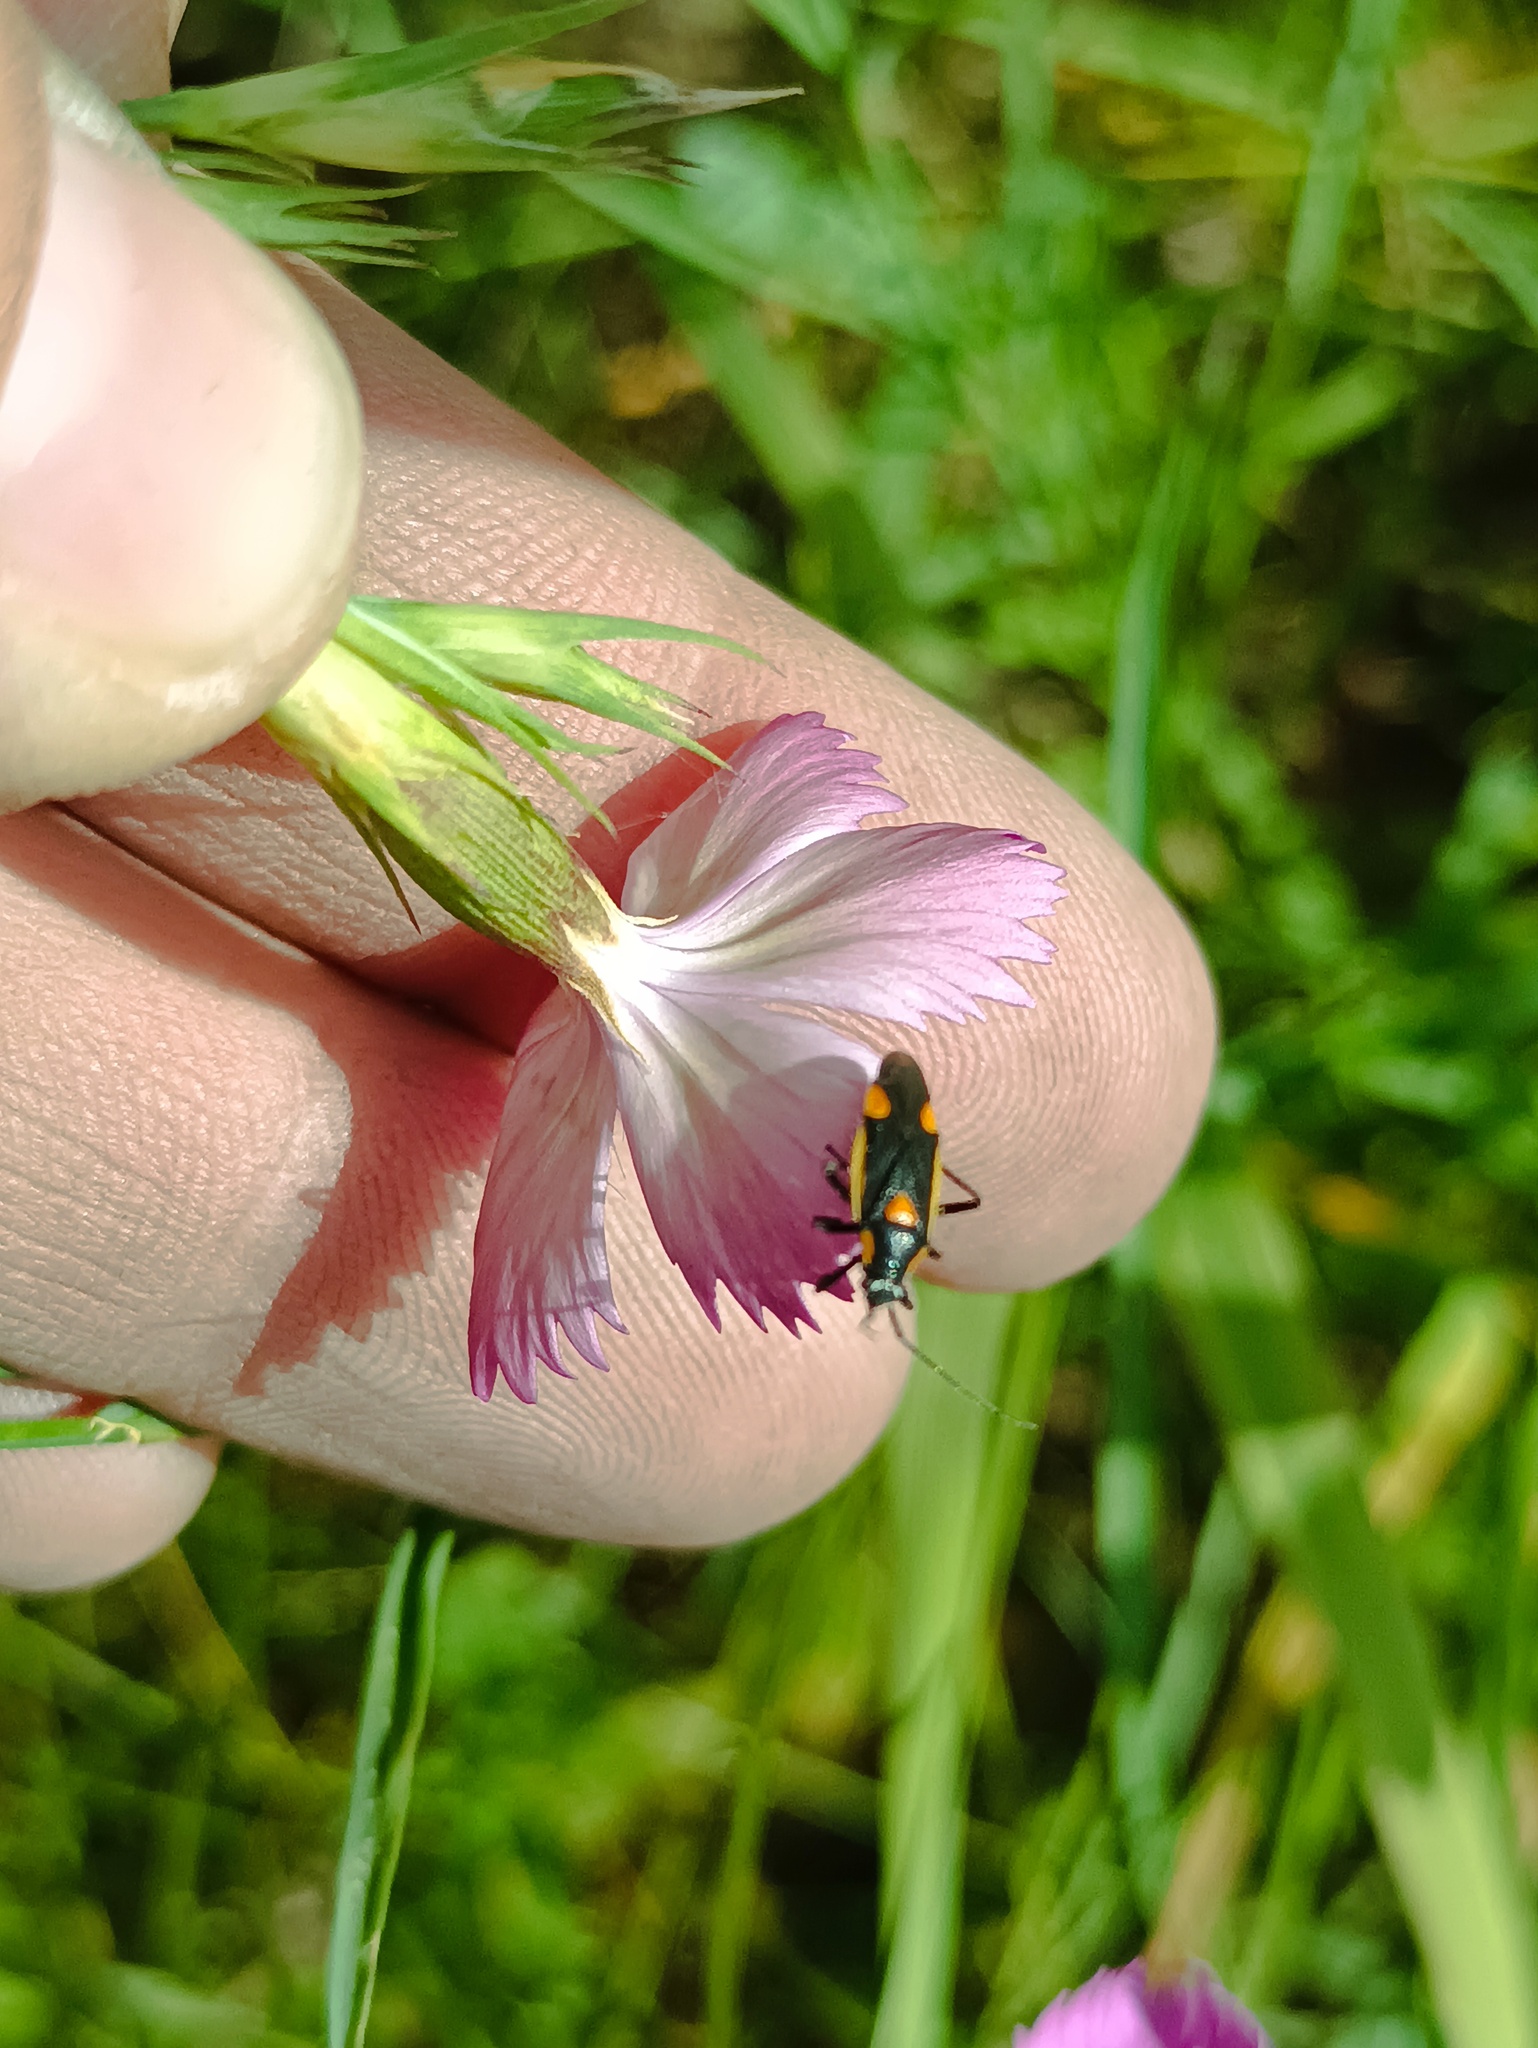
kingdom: Animalia
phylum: Arthropoda
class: Insecta
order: Hemiptera
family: Miridae
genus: Capsodes
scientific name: Capsodes gothicus
